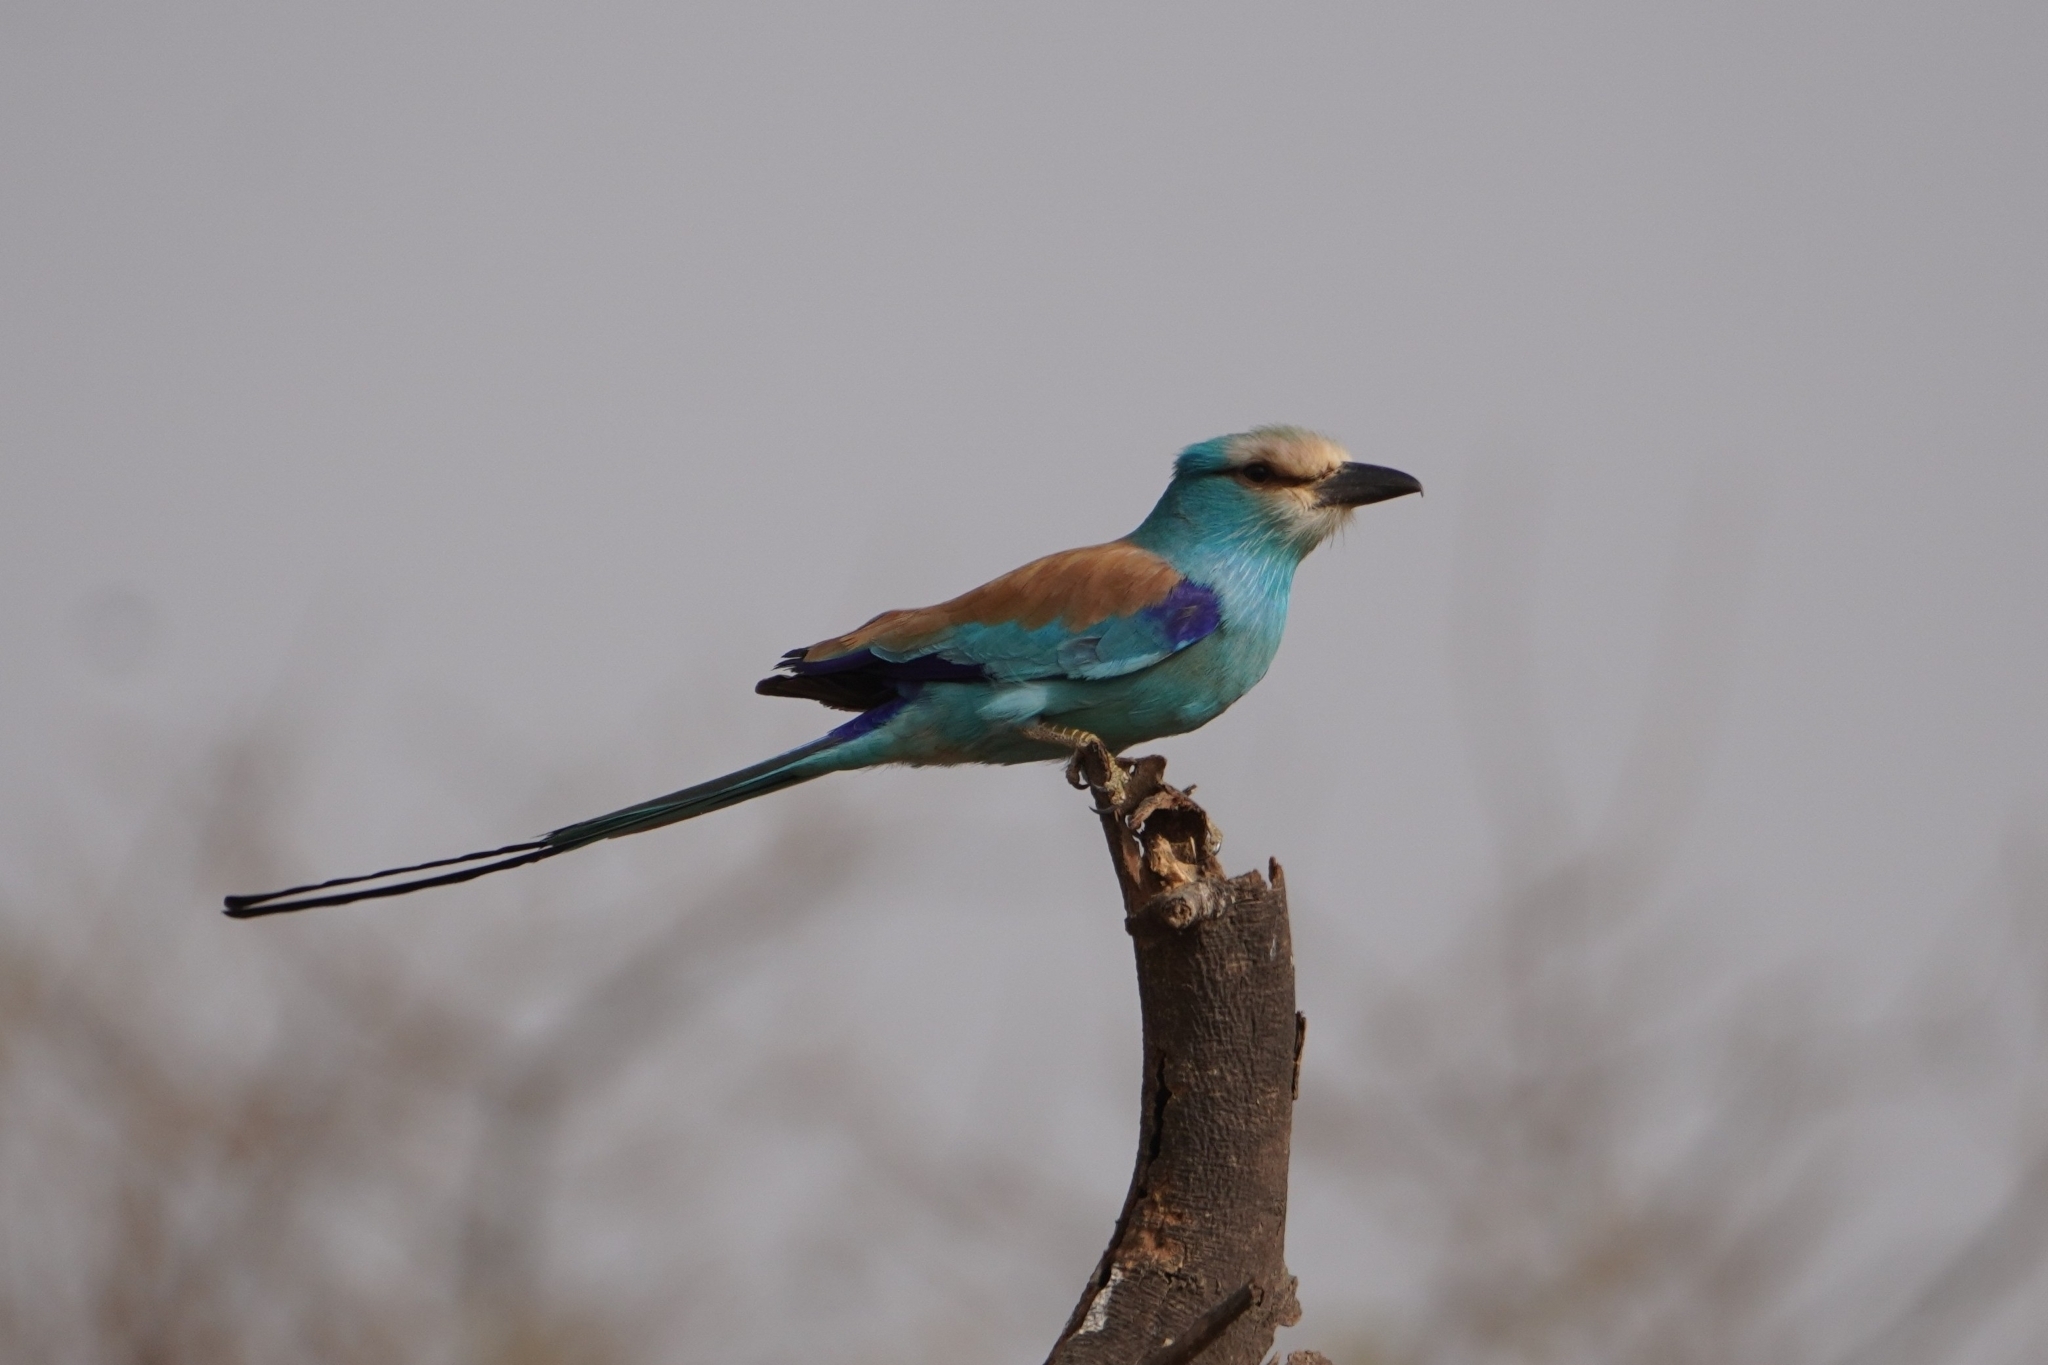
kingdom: Animalia
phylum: Chordata
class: Aves
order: Coraciiformes
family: Coraciidae
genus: Coracias
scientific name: Coracias abyssinicus
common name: Abyssinian roller
